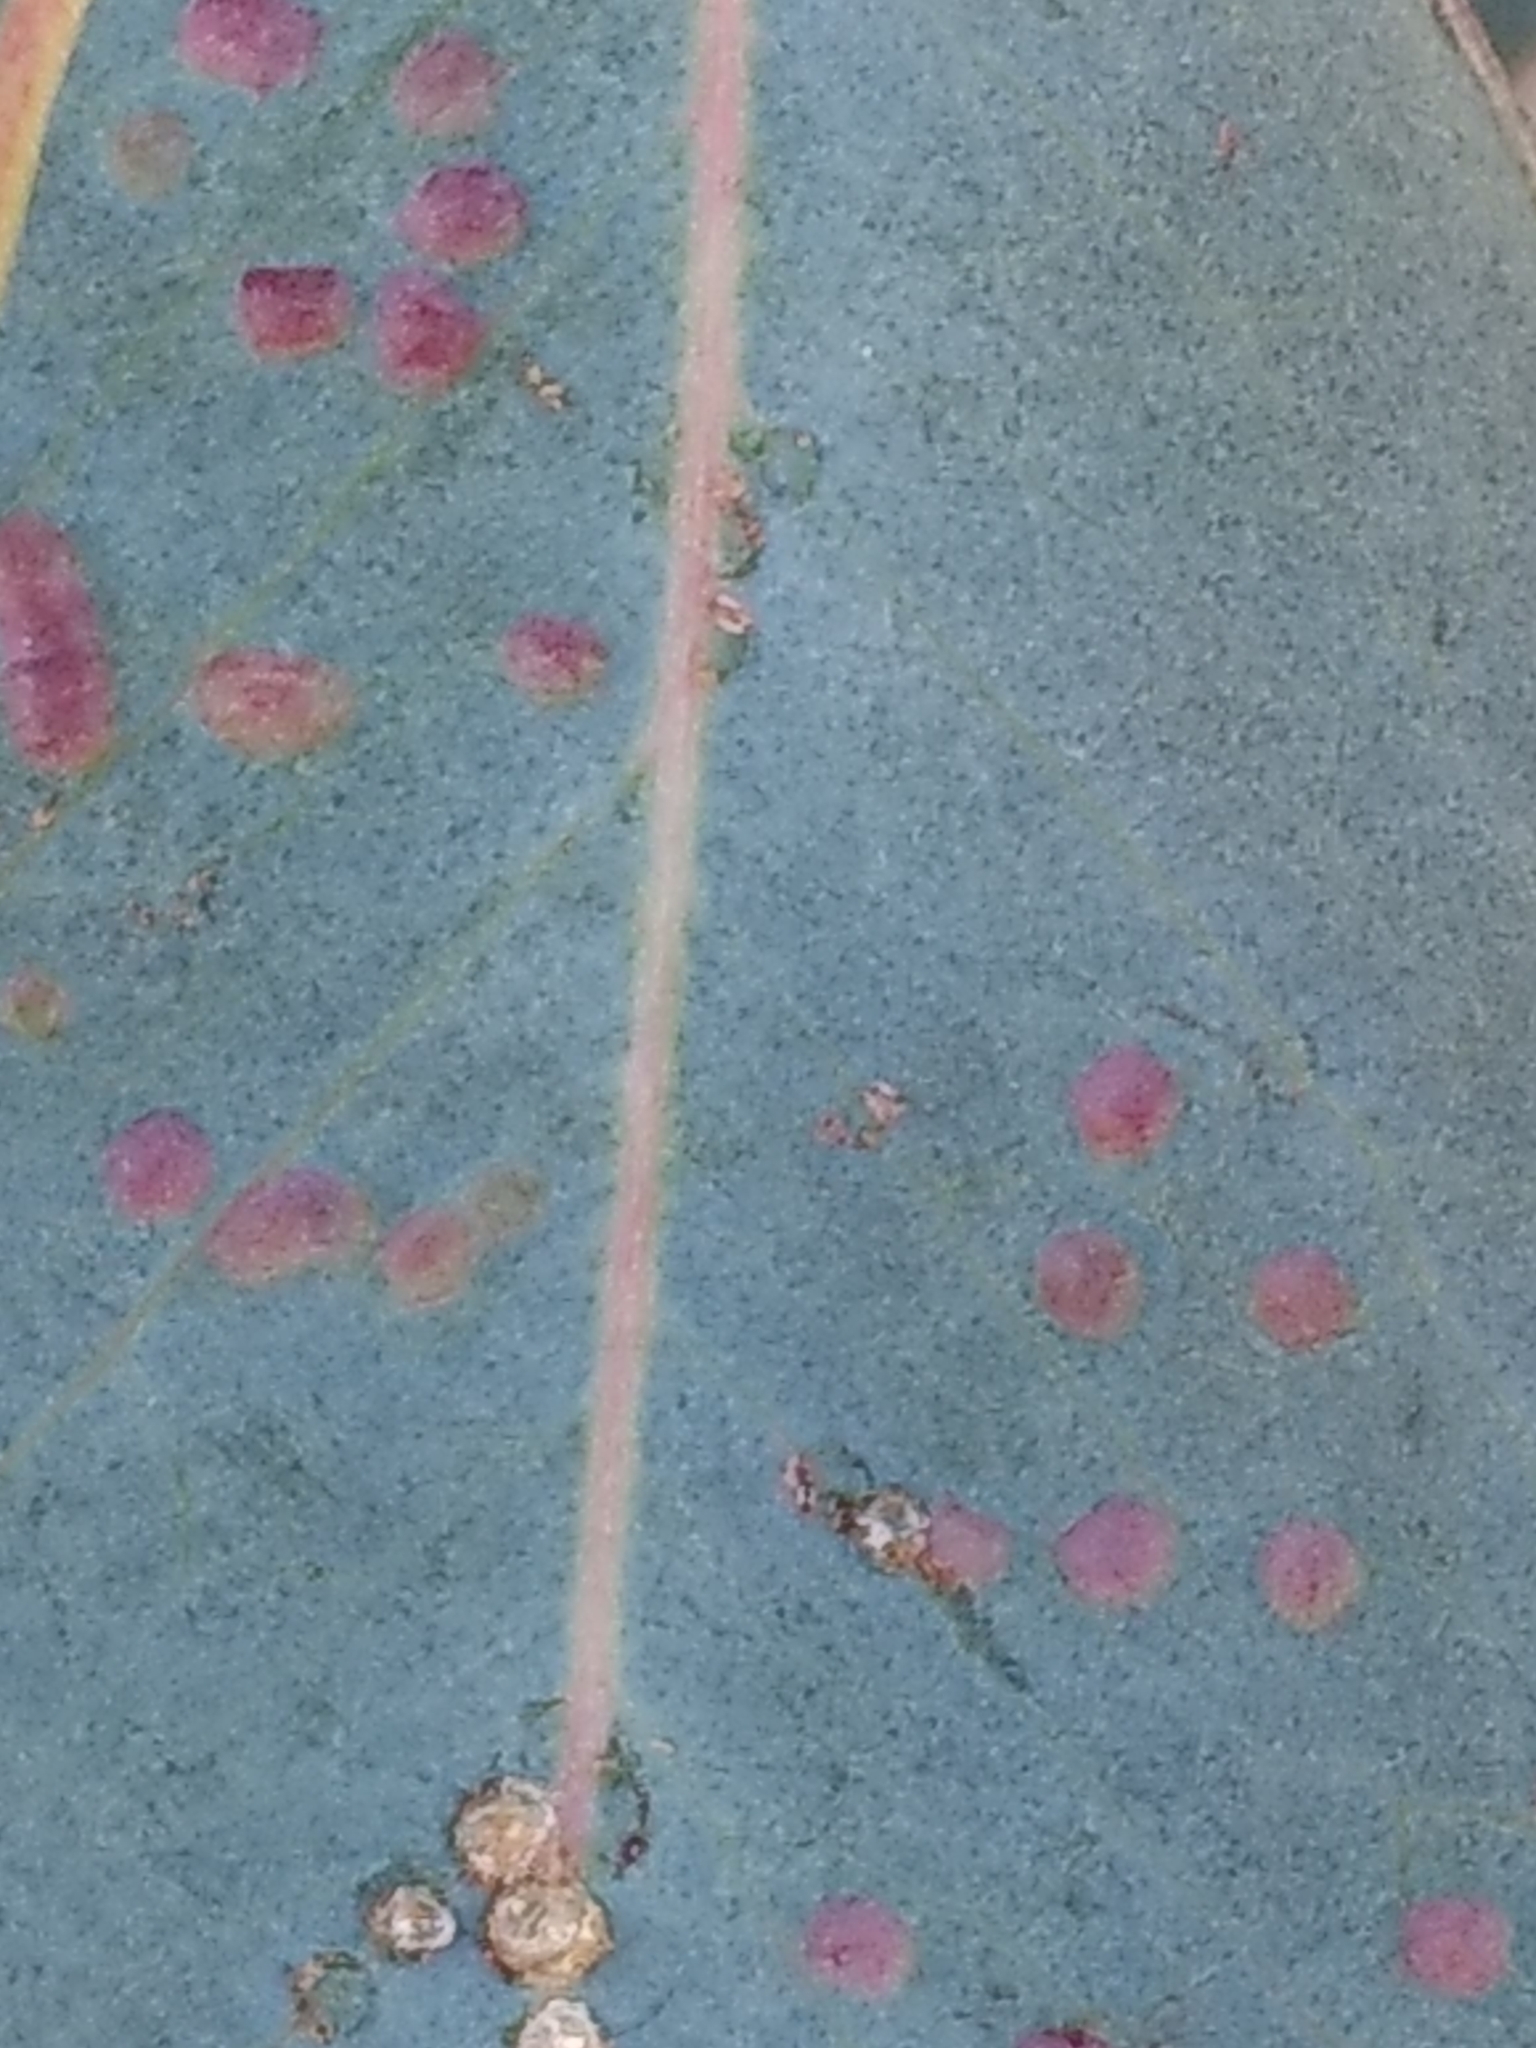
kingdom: Animalia
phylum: Arthropoda
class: Insecta
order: Hymenoptera
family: Eulophidae
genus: Ophelimus
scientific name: Ophelimus maskelli
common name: Gall wasp
